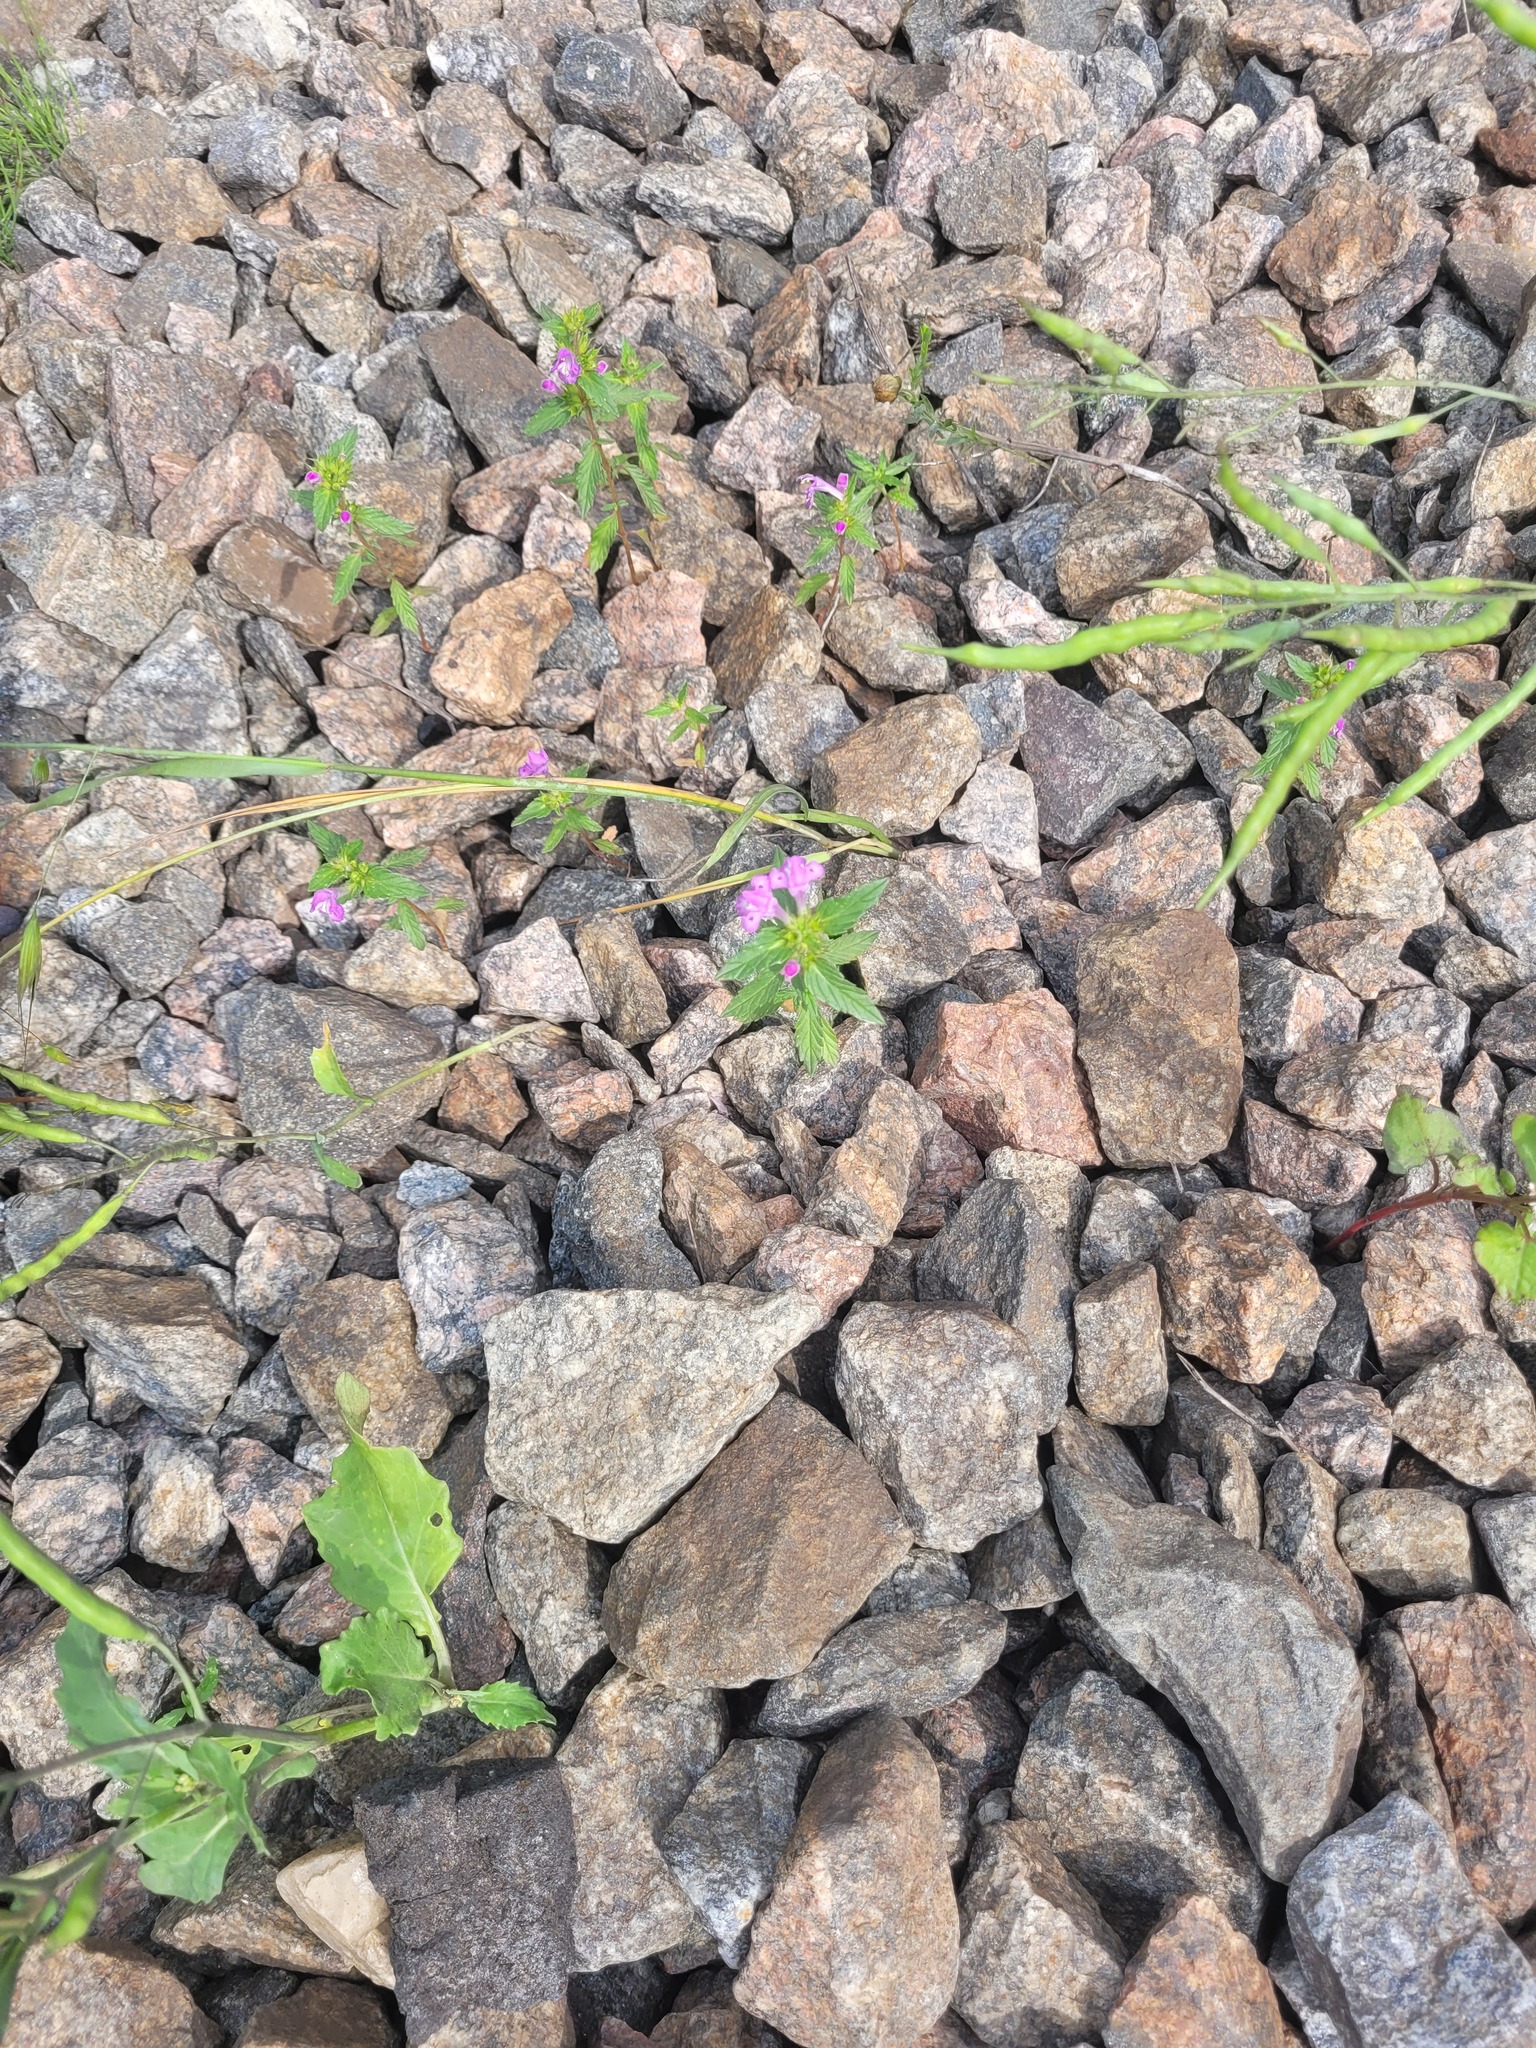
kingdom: Plantae
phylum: Tracheophyta
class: Magnoliopsida
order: Lamiales
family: Lamiaceae
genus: Galeopsis
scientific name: Galeopsis ladanum
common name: Broad-leaved hemp-nettle
